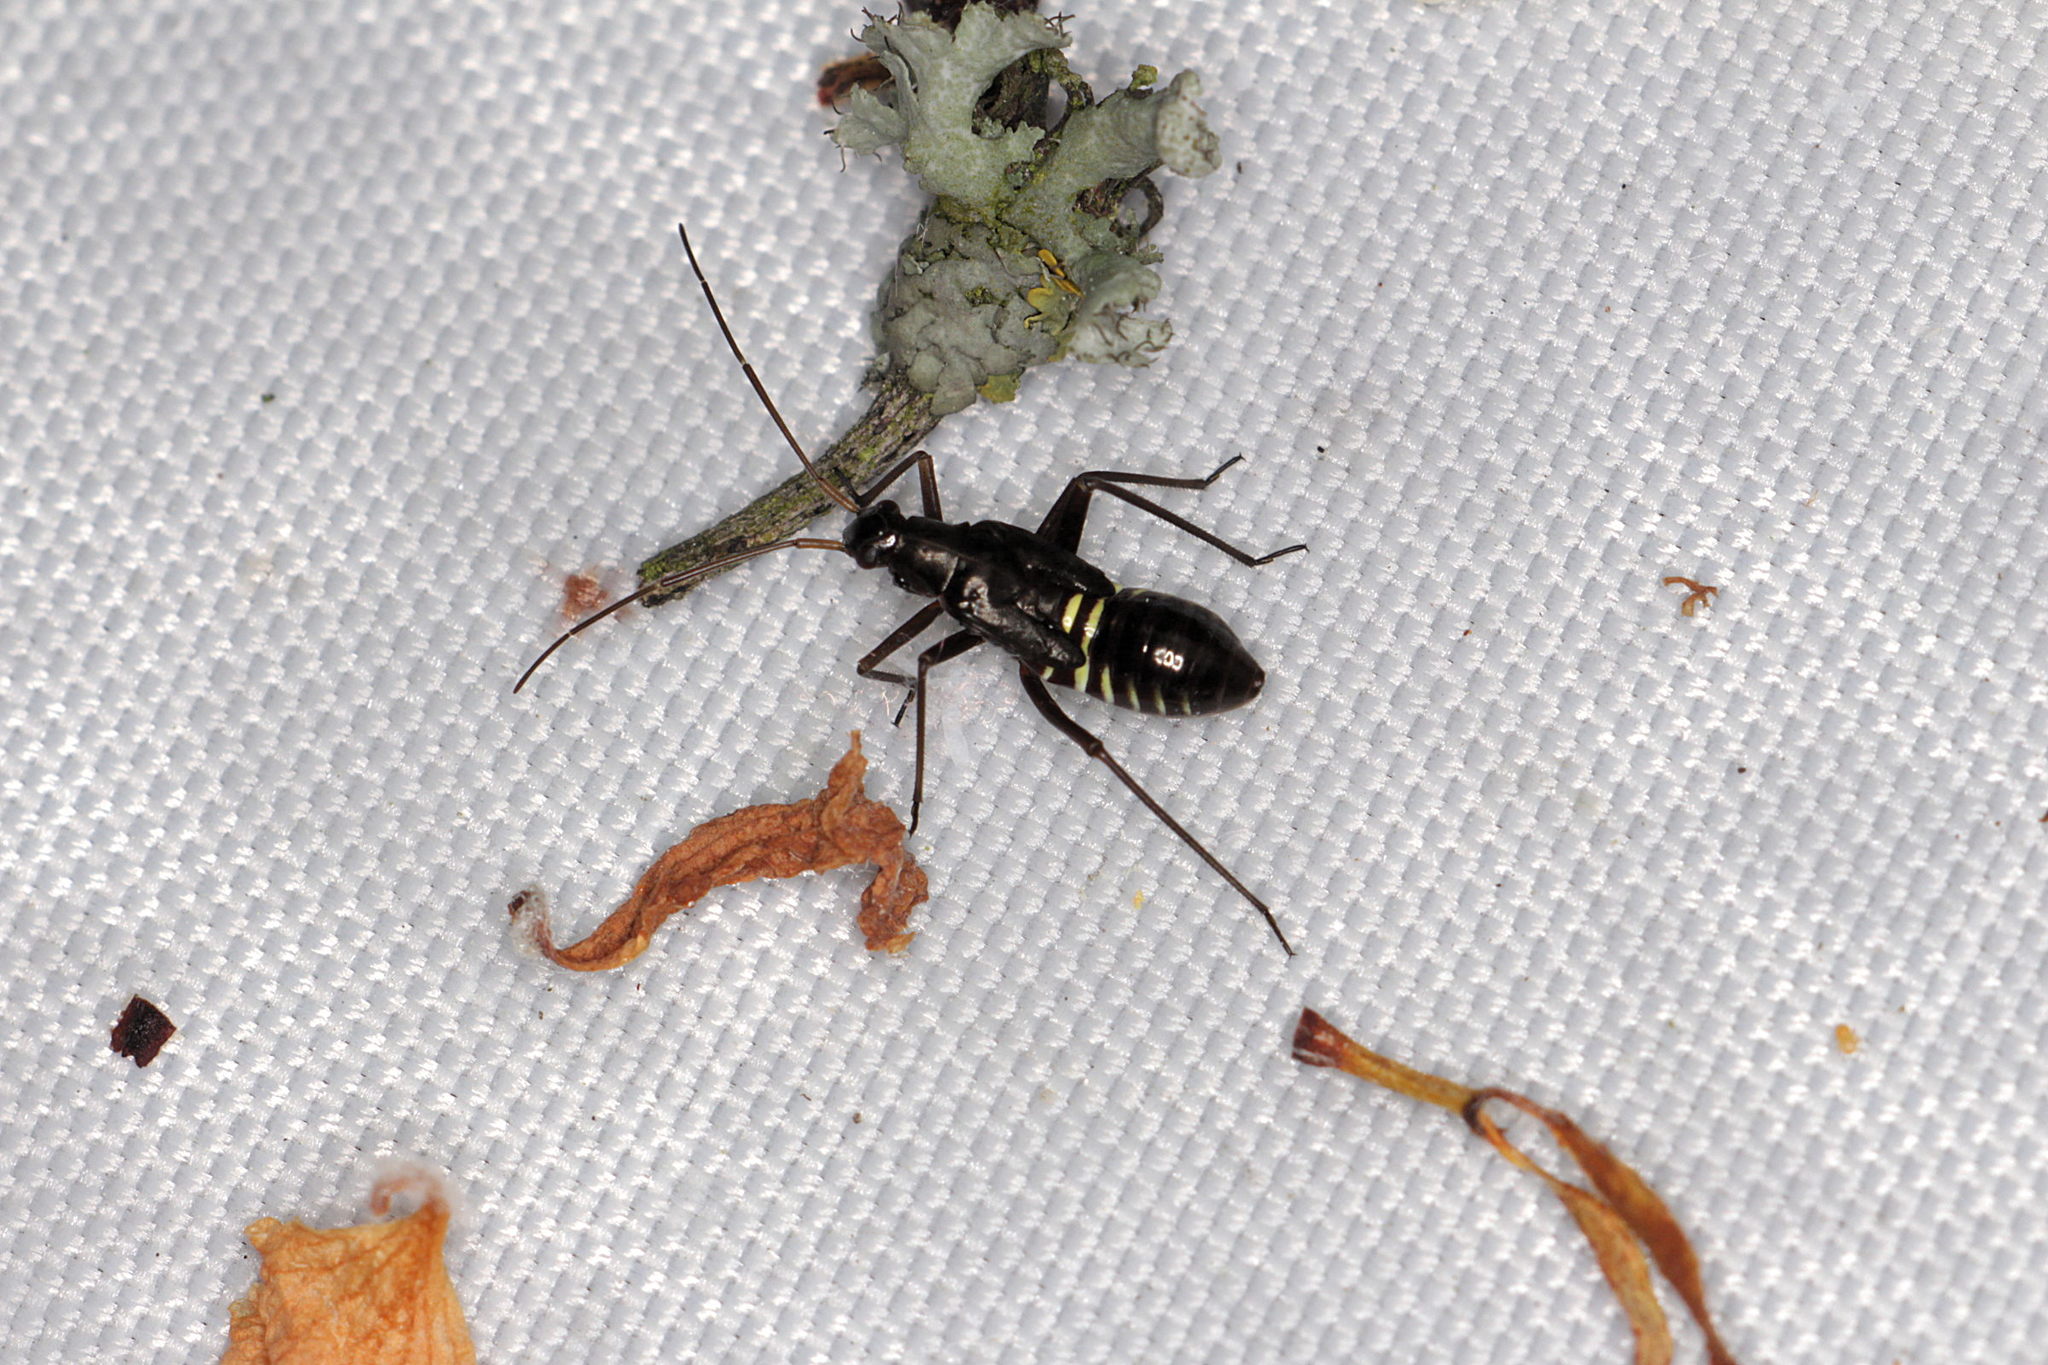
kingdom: Animalia
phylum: Arthropoda
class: Insecta
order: Hemiptera
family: Miridae
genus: Miris
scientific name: Miris striatus
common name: Fine streaked bugkin
